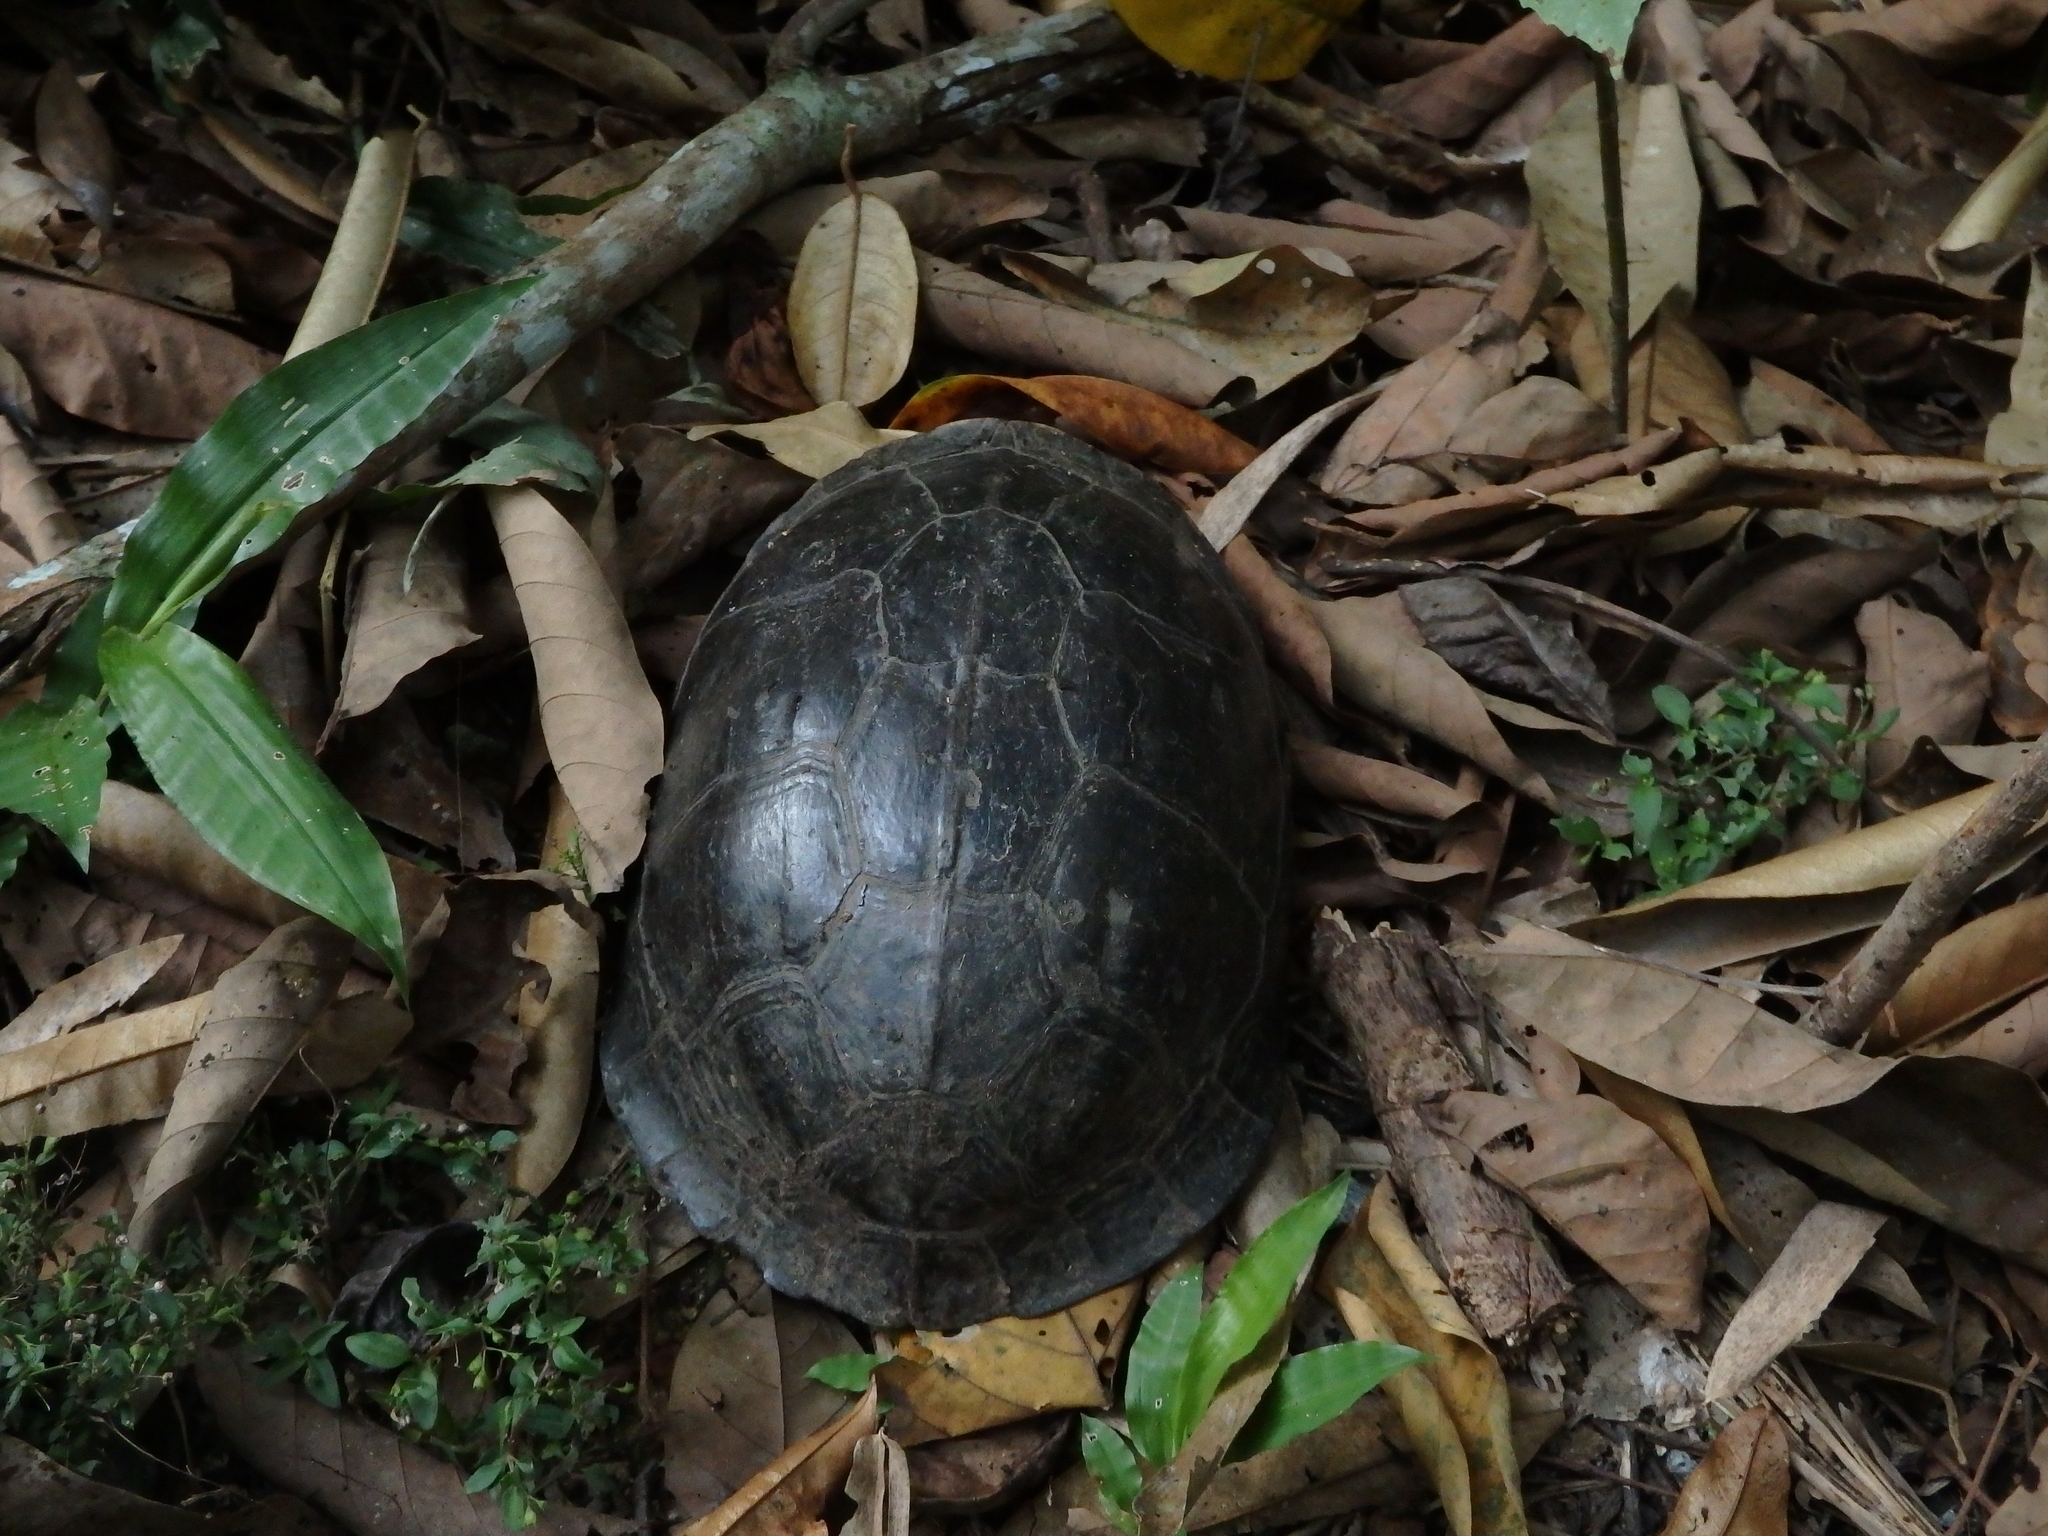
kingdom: Animalia
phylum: Chordata
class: Testudines
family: Geoemydidae
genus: Cuora
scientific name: Cuora
